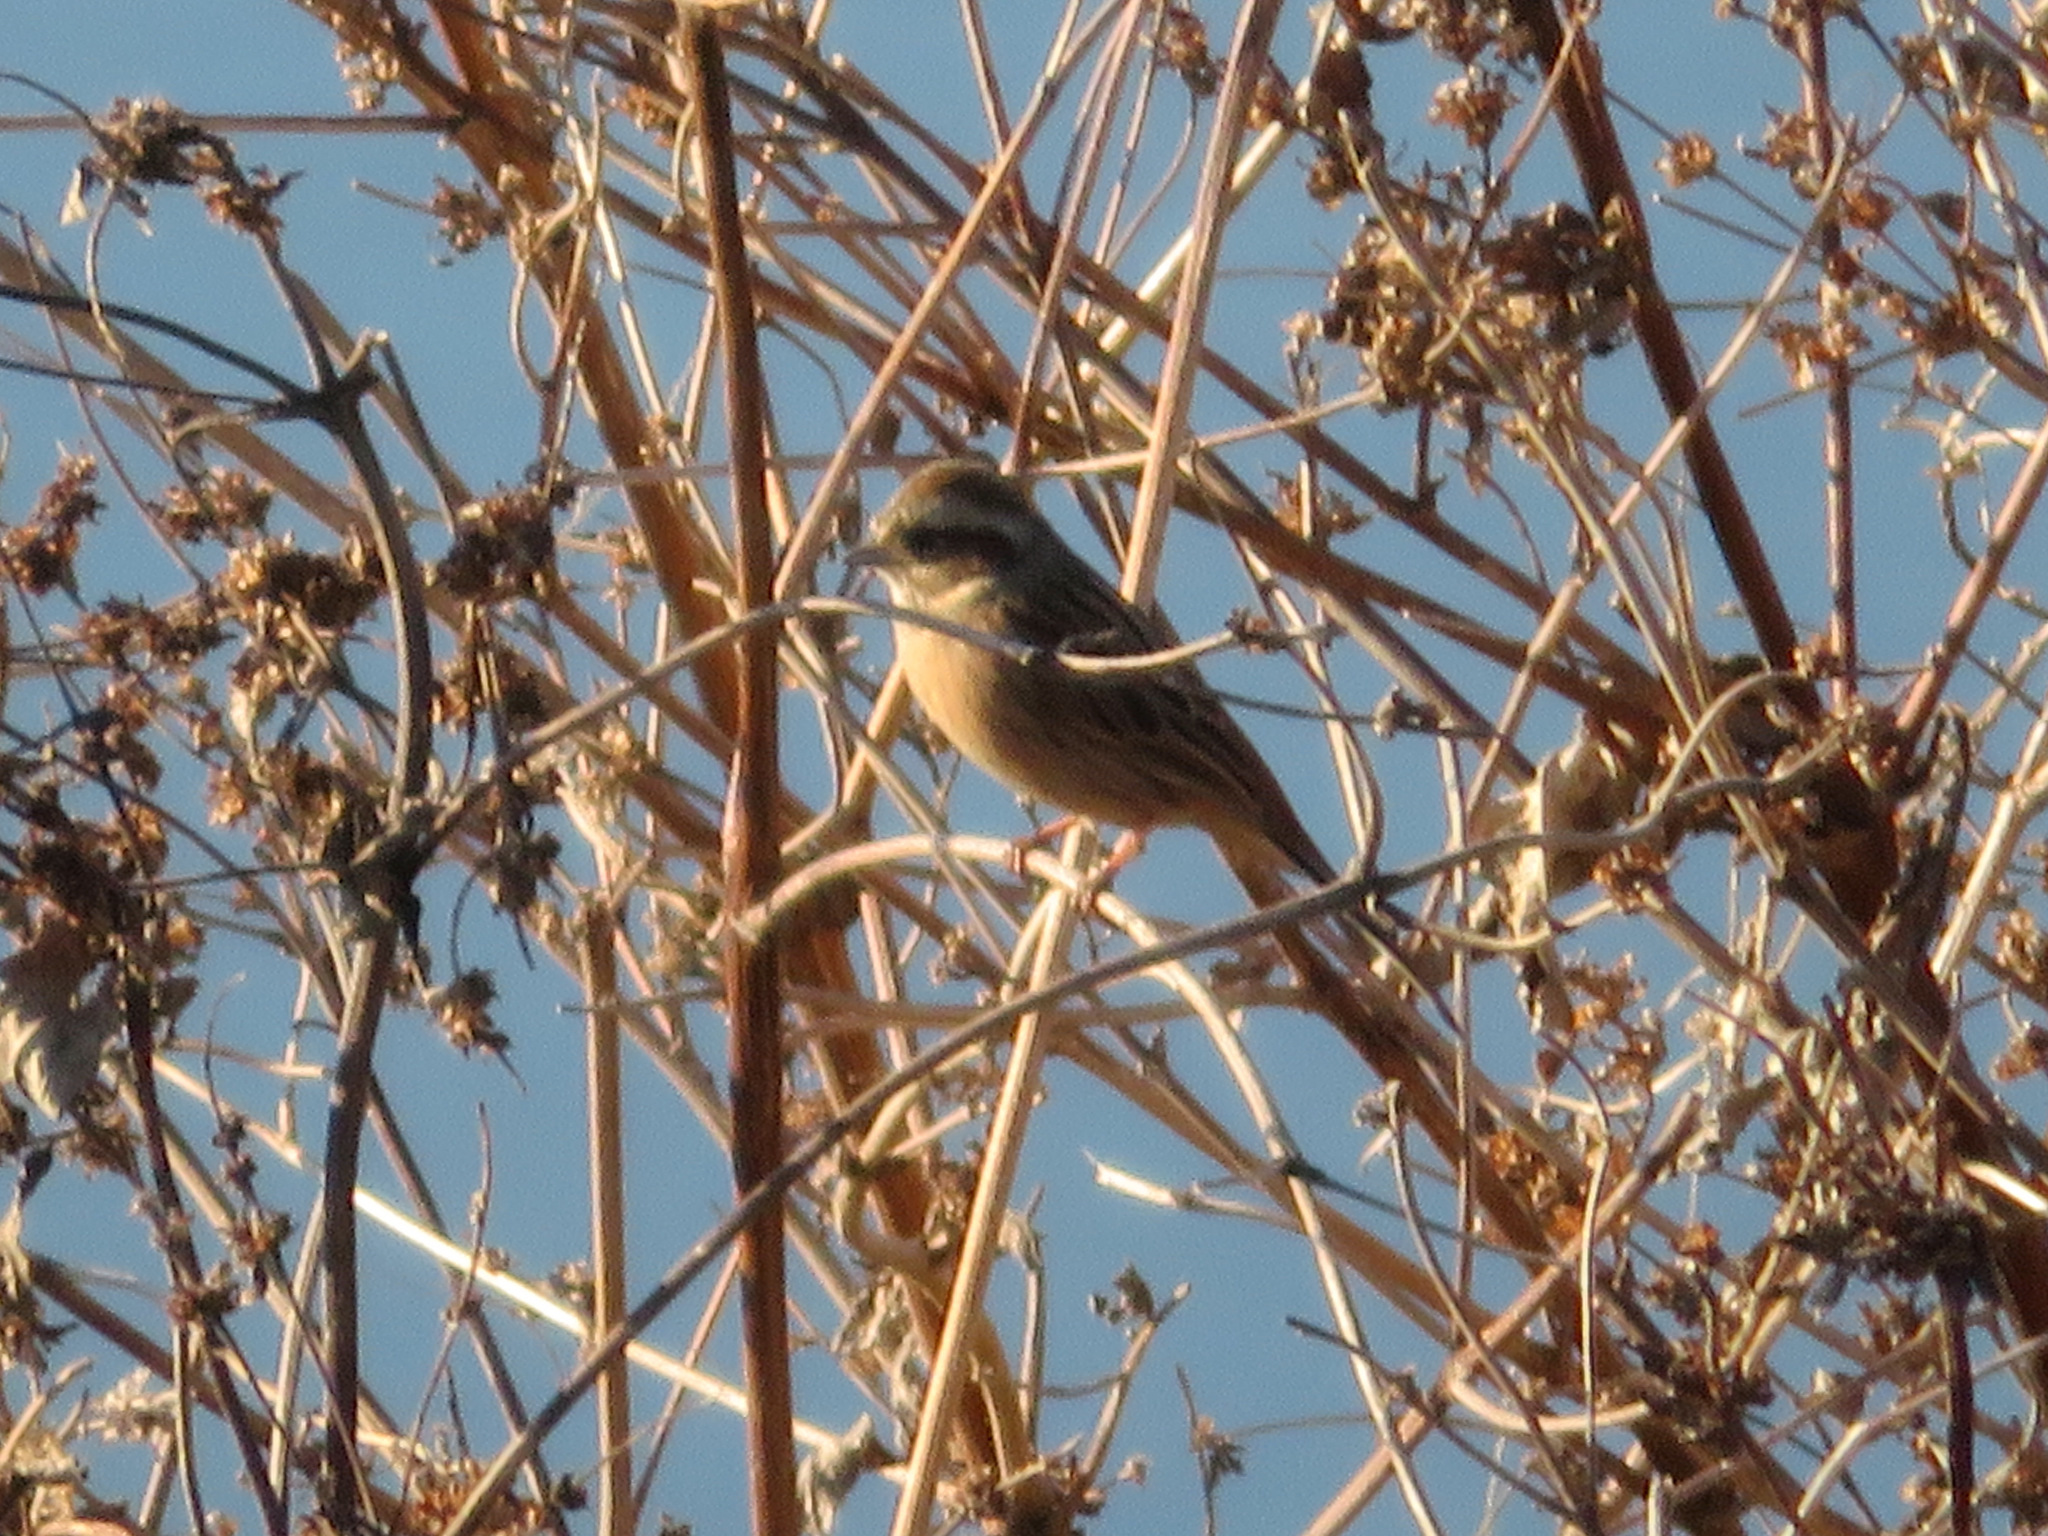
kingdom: Animalia
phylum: Chordata
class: Aves
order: Passeriformes
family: Emberizidae
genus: Emberiza
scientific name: Emberiza cioides
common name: Meadow bunting
